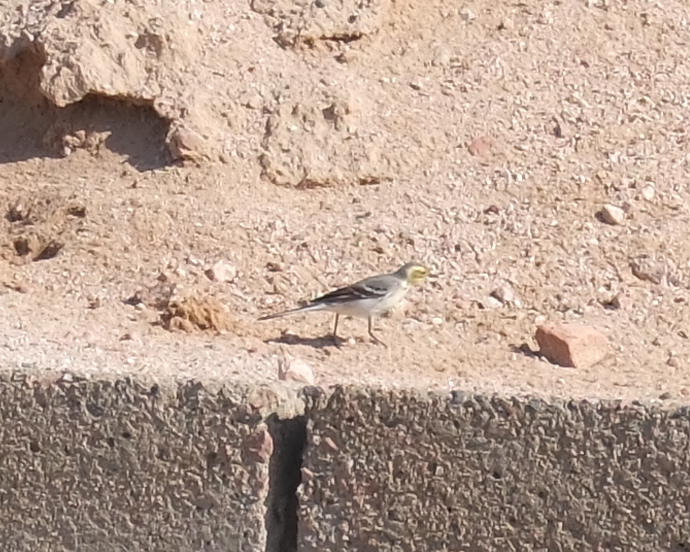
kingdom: Animalia
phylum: Chordata
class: Aves
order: Passeriformes
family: Motacillidae
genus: Motacilla
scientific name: Motacilla citreola
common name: Citrine wagtail
